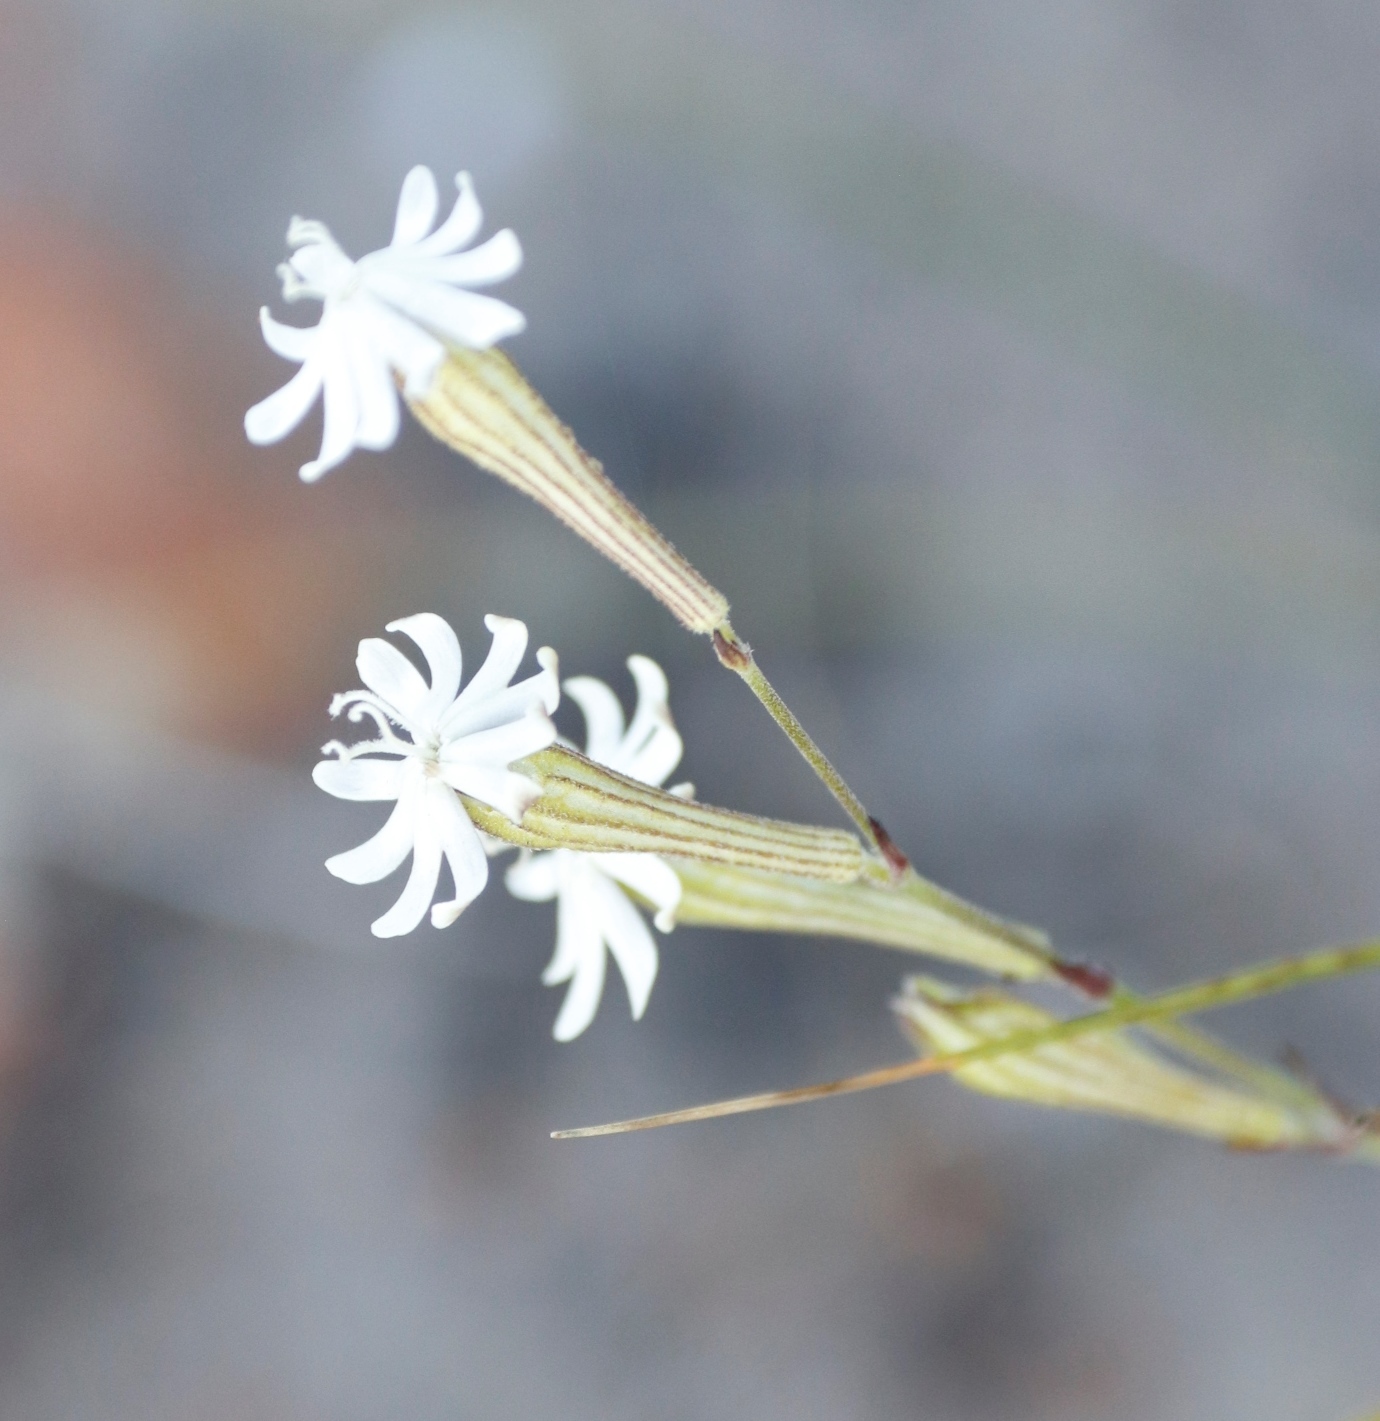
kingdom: Plantae
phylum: Tracheophyta
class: Magnoliopsida
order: Caryophyllales
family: Caryophyllaceae
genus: Silene
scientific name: Silene burchellii
